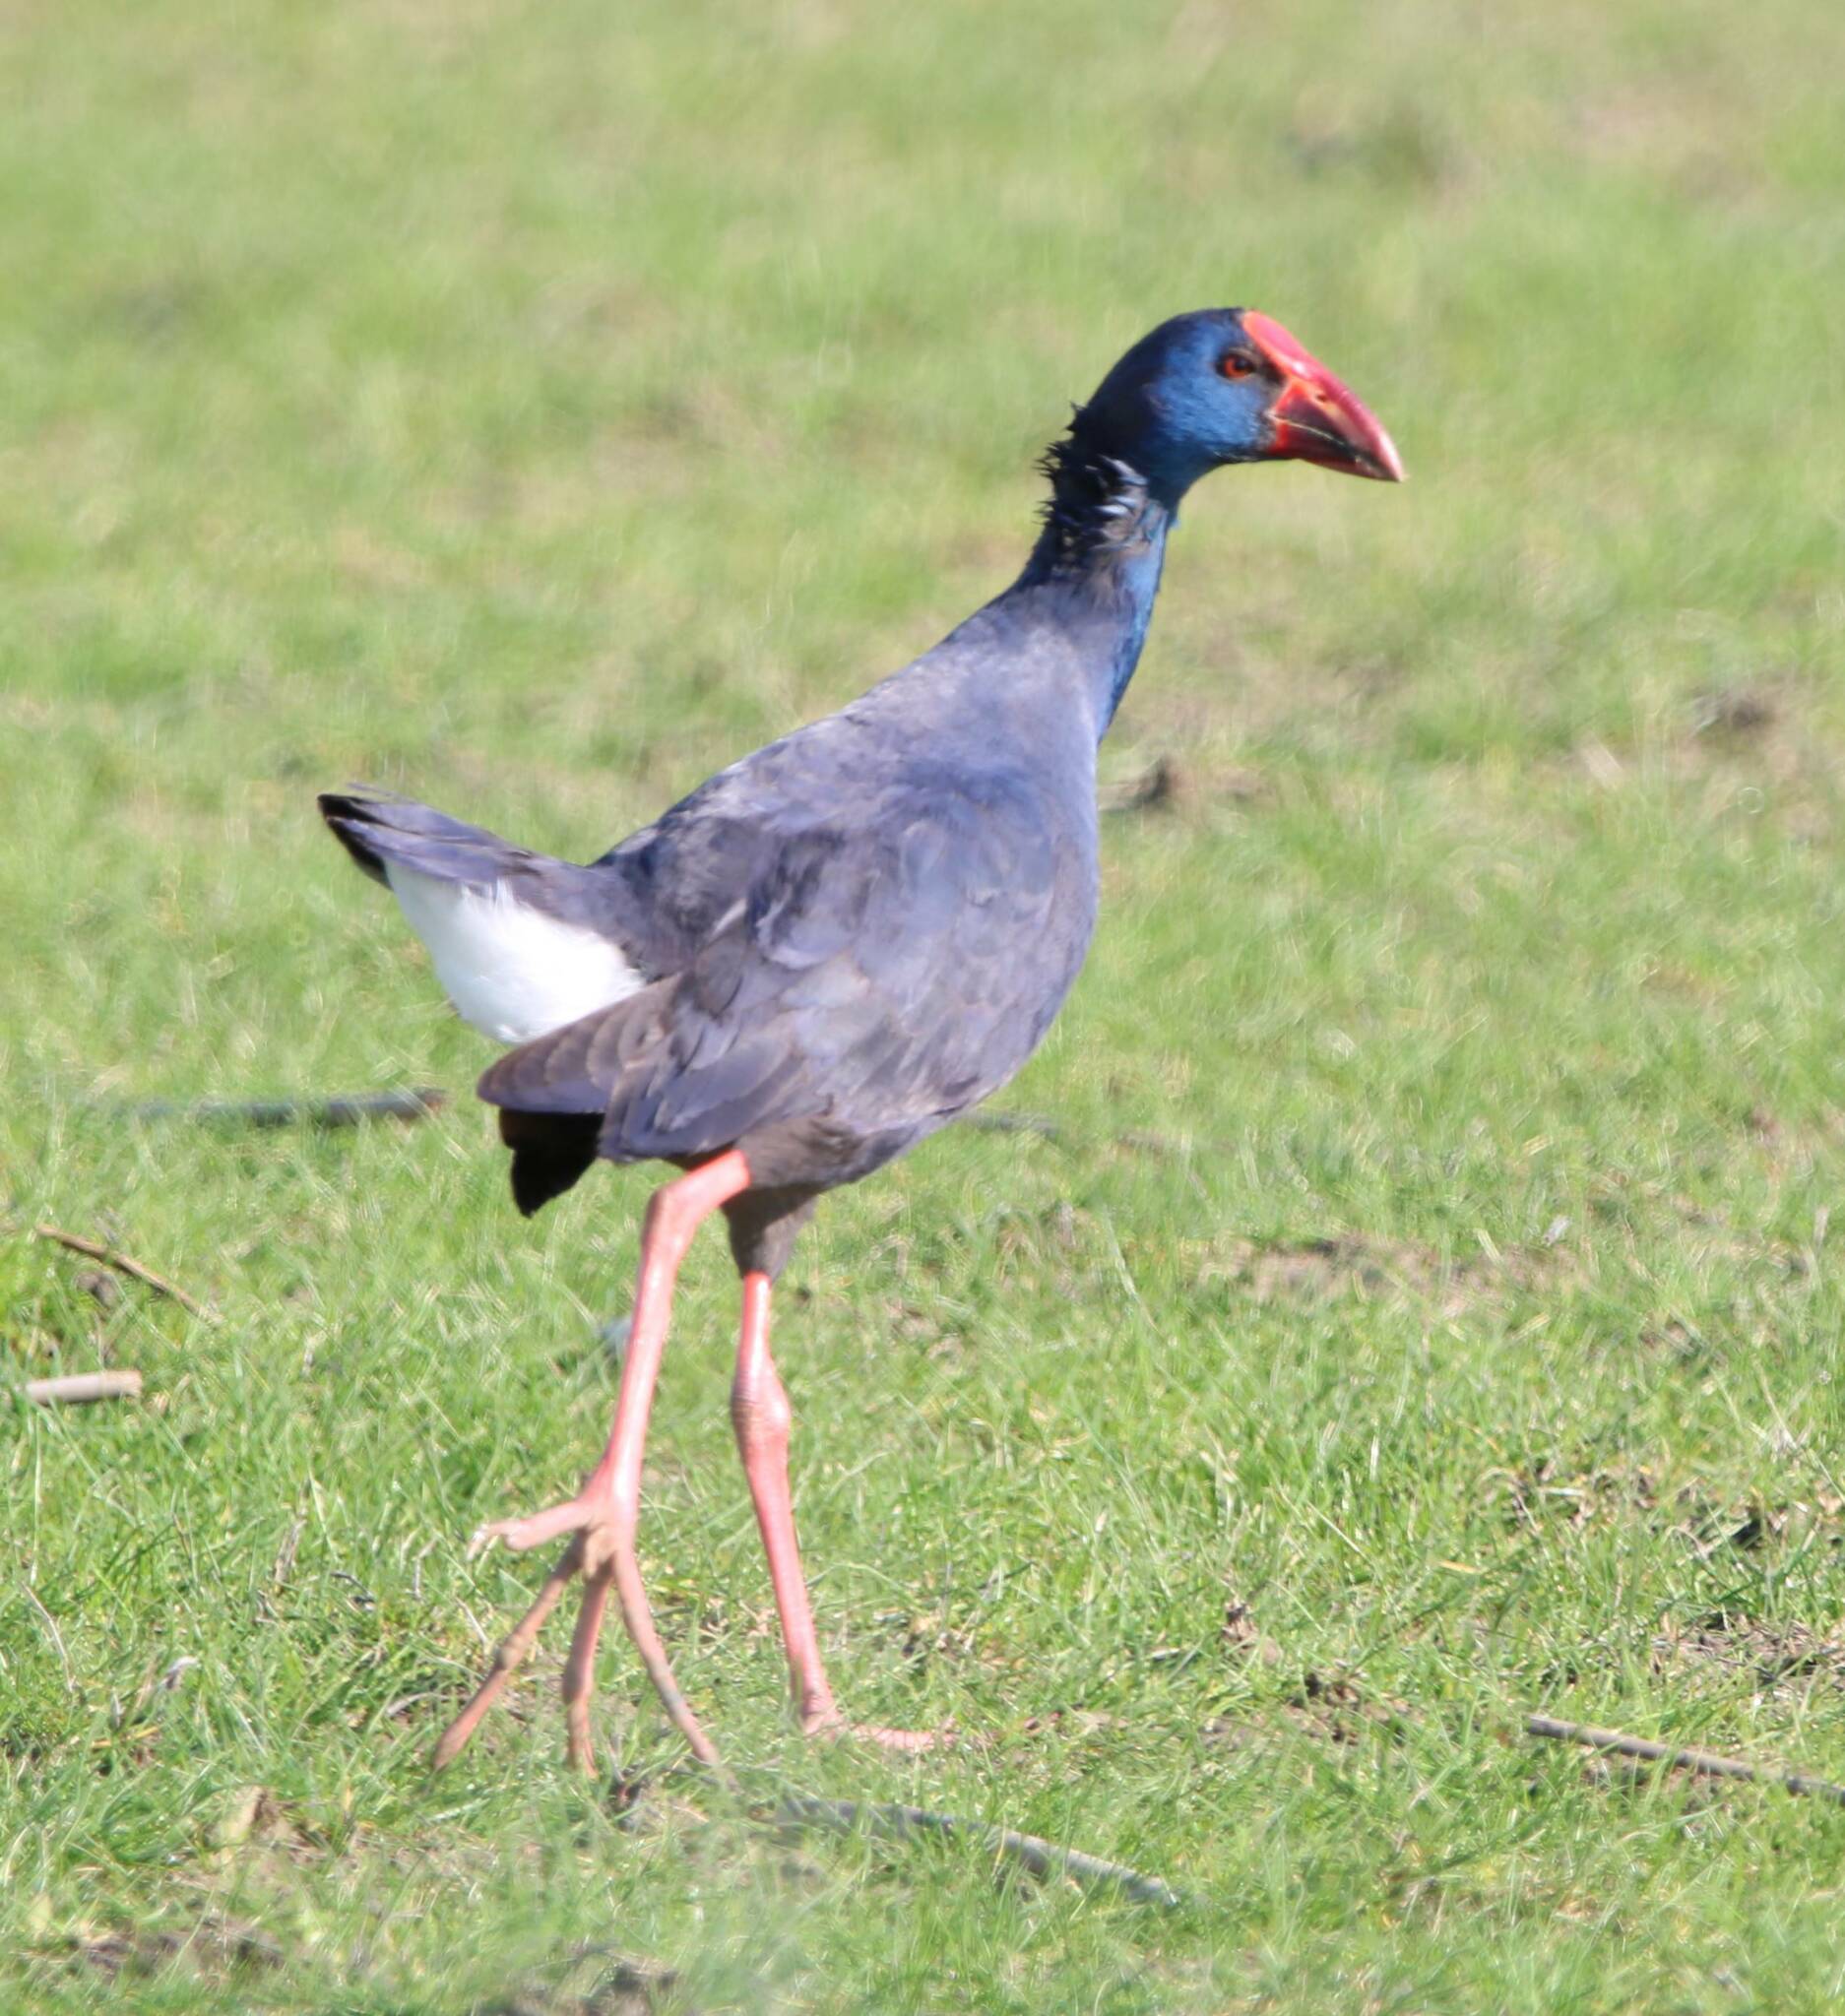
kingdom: Animalia
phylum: Chordata
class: Aves
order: Gruiformes
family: Rallidae
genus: Porphyrio
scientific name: Porphyrio porphyrio
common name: Purple swamphen
